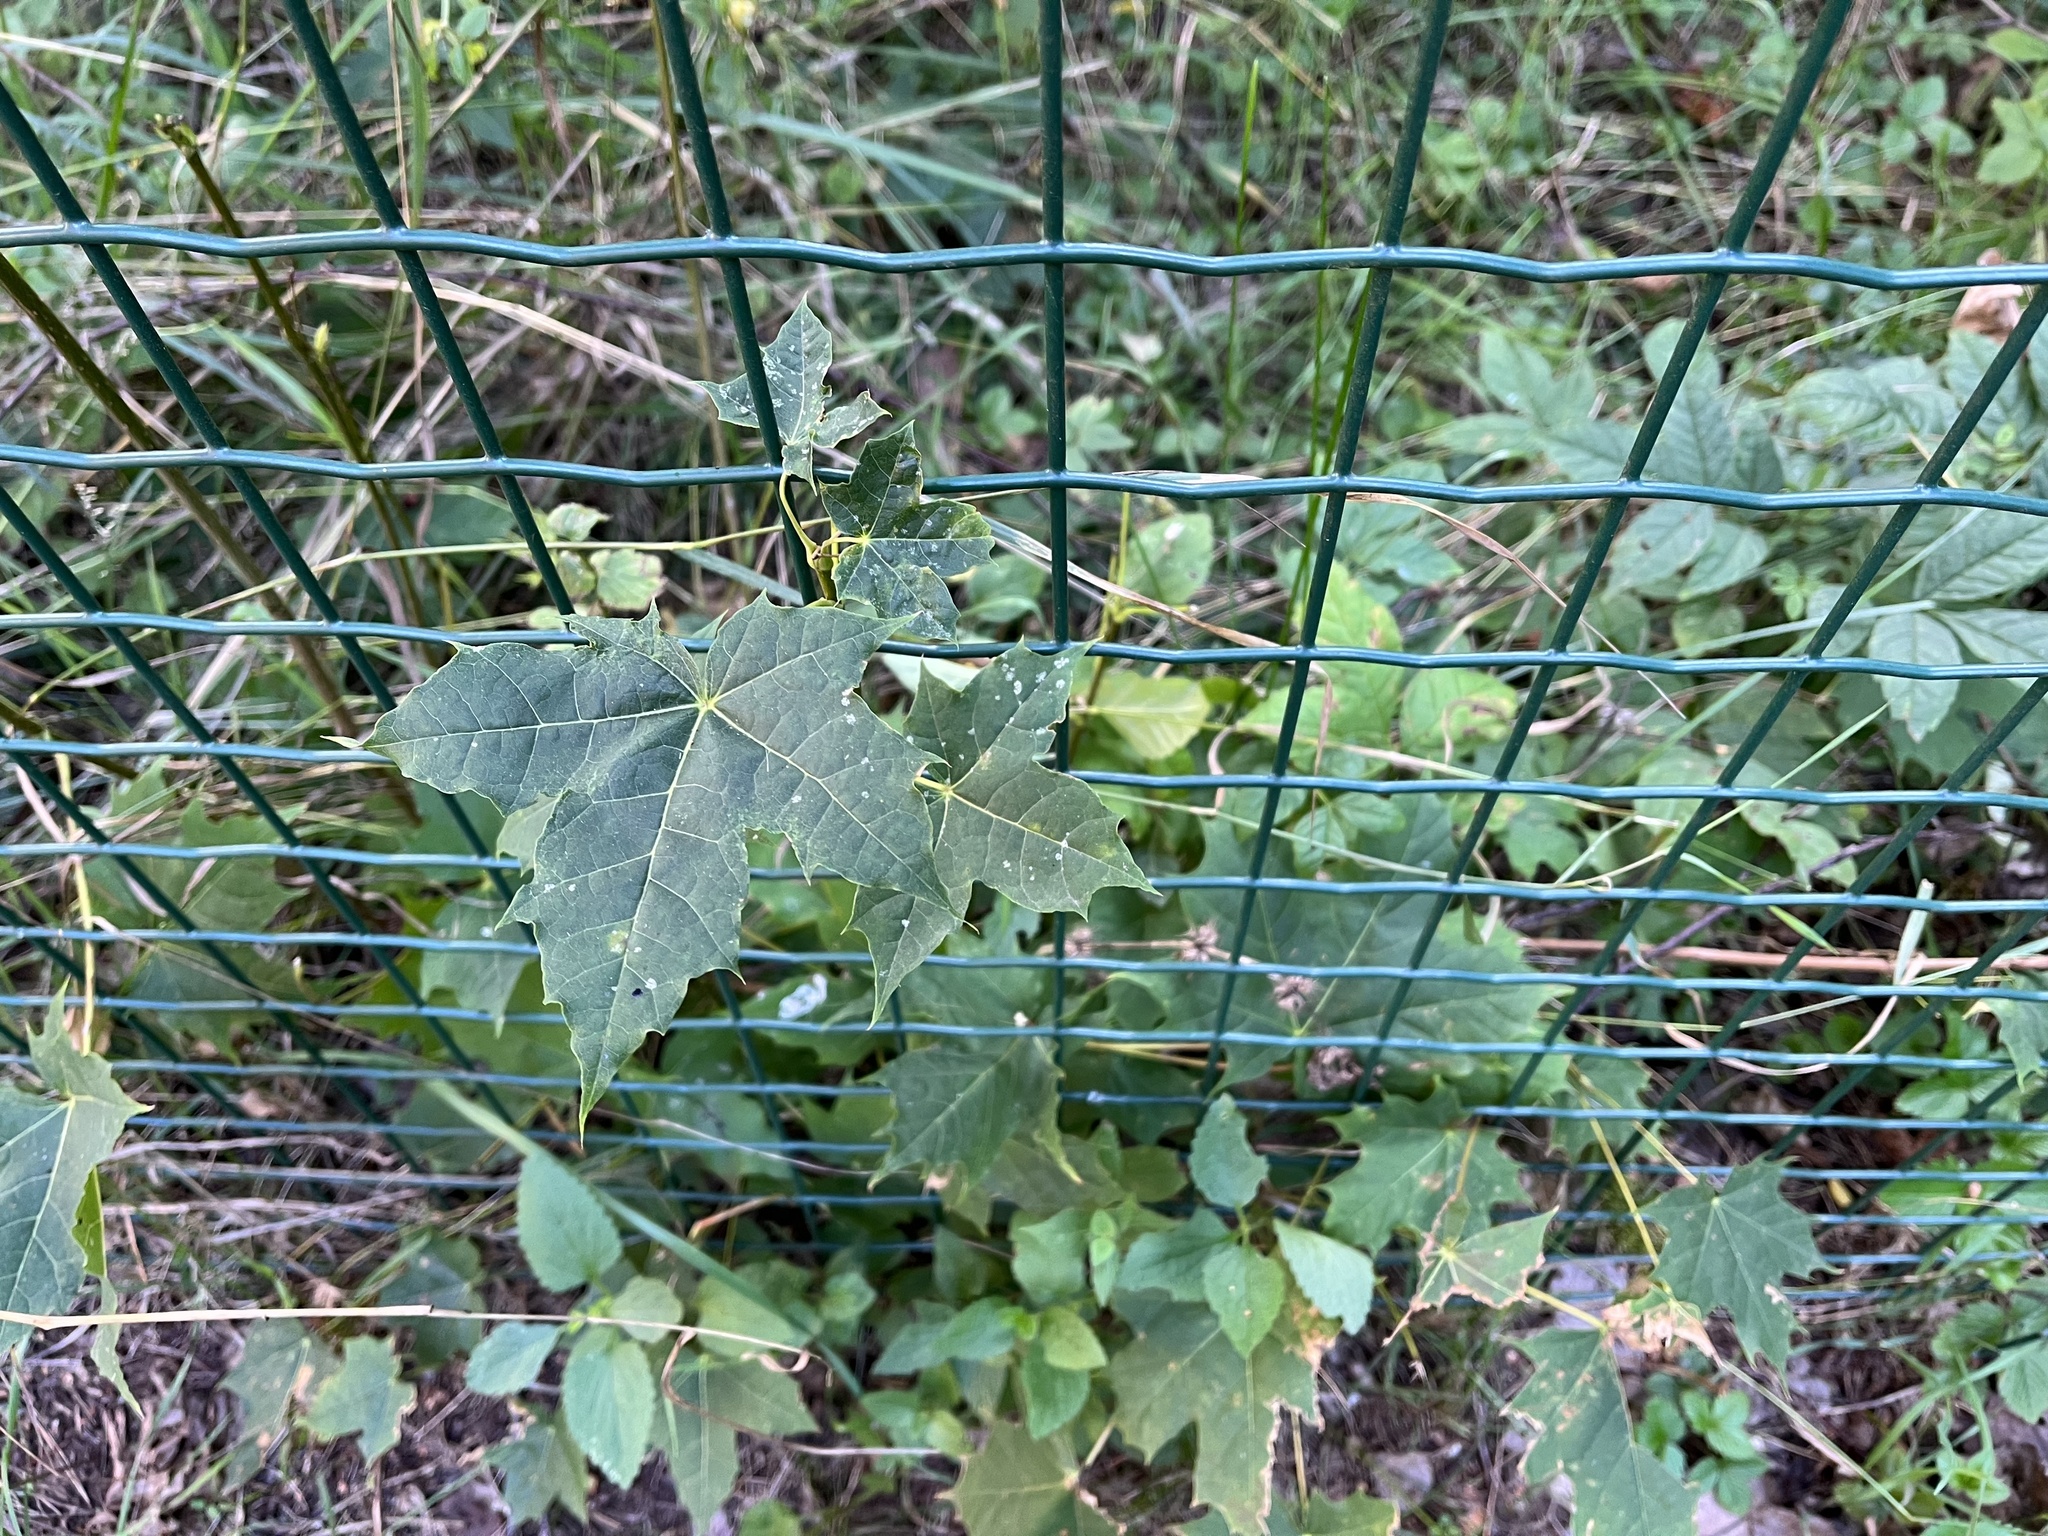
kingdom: Plantae
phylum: Tracheophyta
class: Magnoliopsida
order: Sapindales
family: Sapindaceae
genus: Acer
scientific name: Acer platanoides
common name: Norway maple
